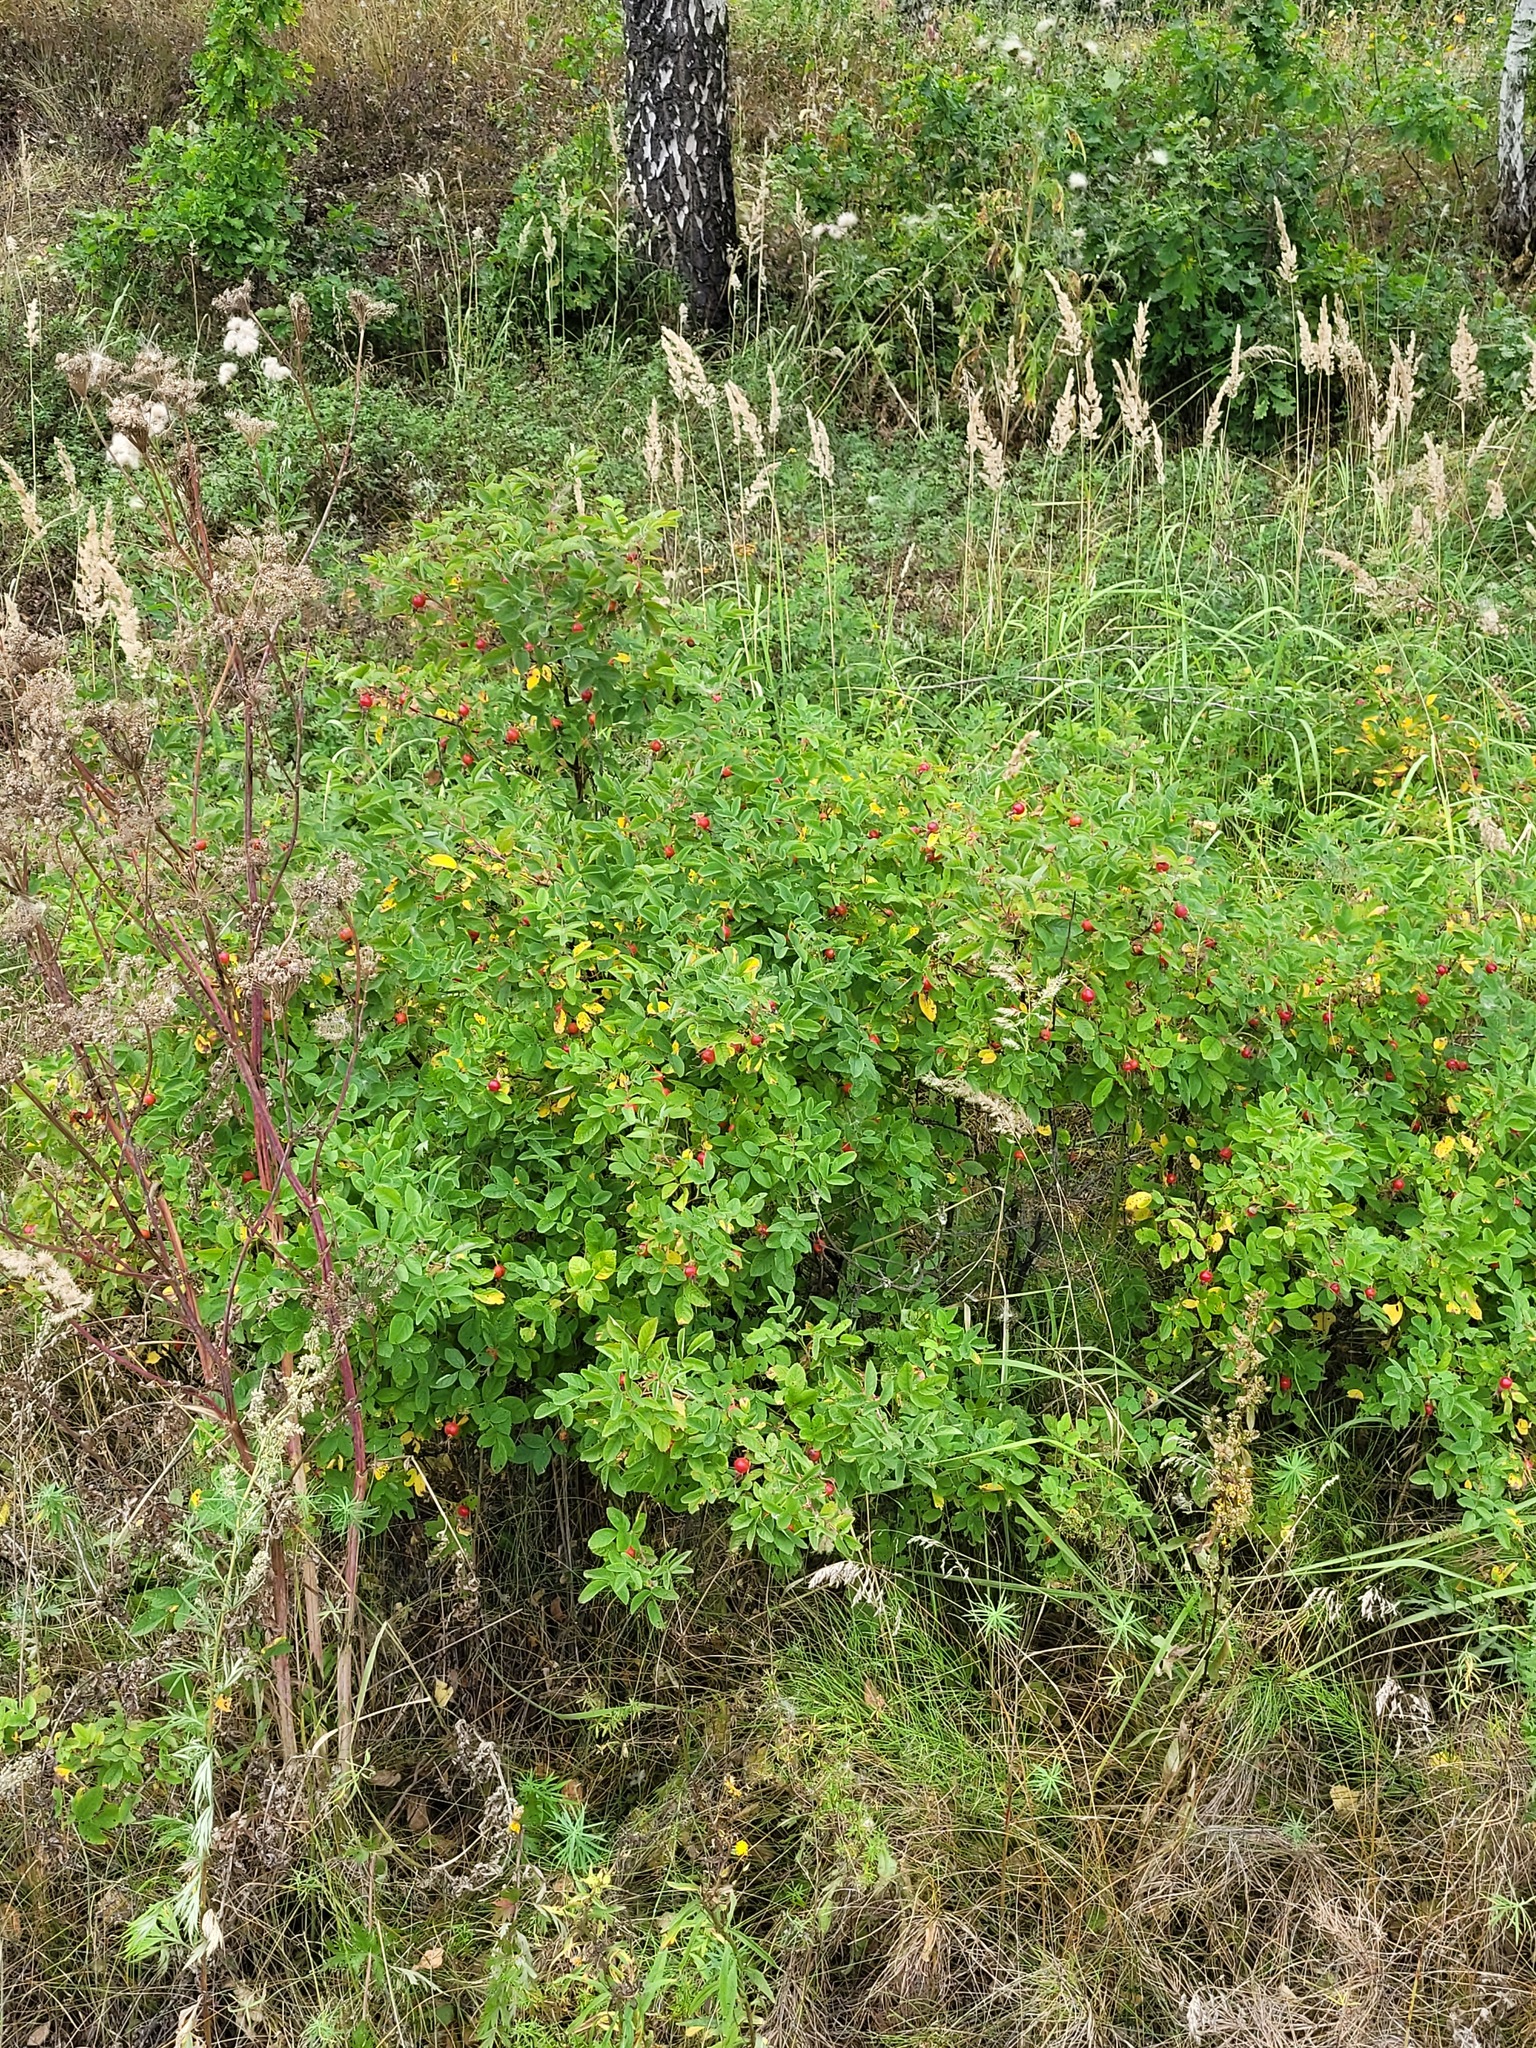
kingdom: Plantae
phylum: Tracheophyta
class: Magnoliopsida
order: Rosales
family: Rosaceae
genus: Rosa
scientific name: Rosa majalis
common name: Cinnamon rose
